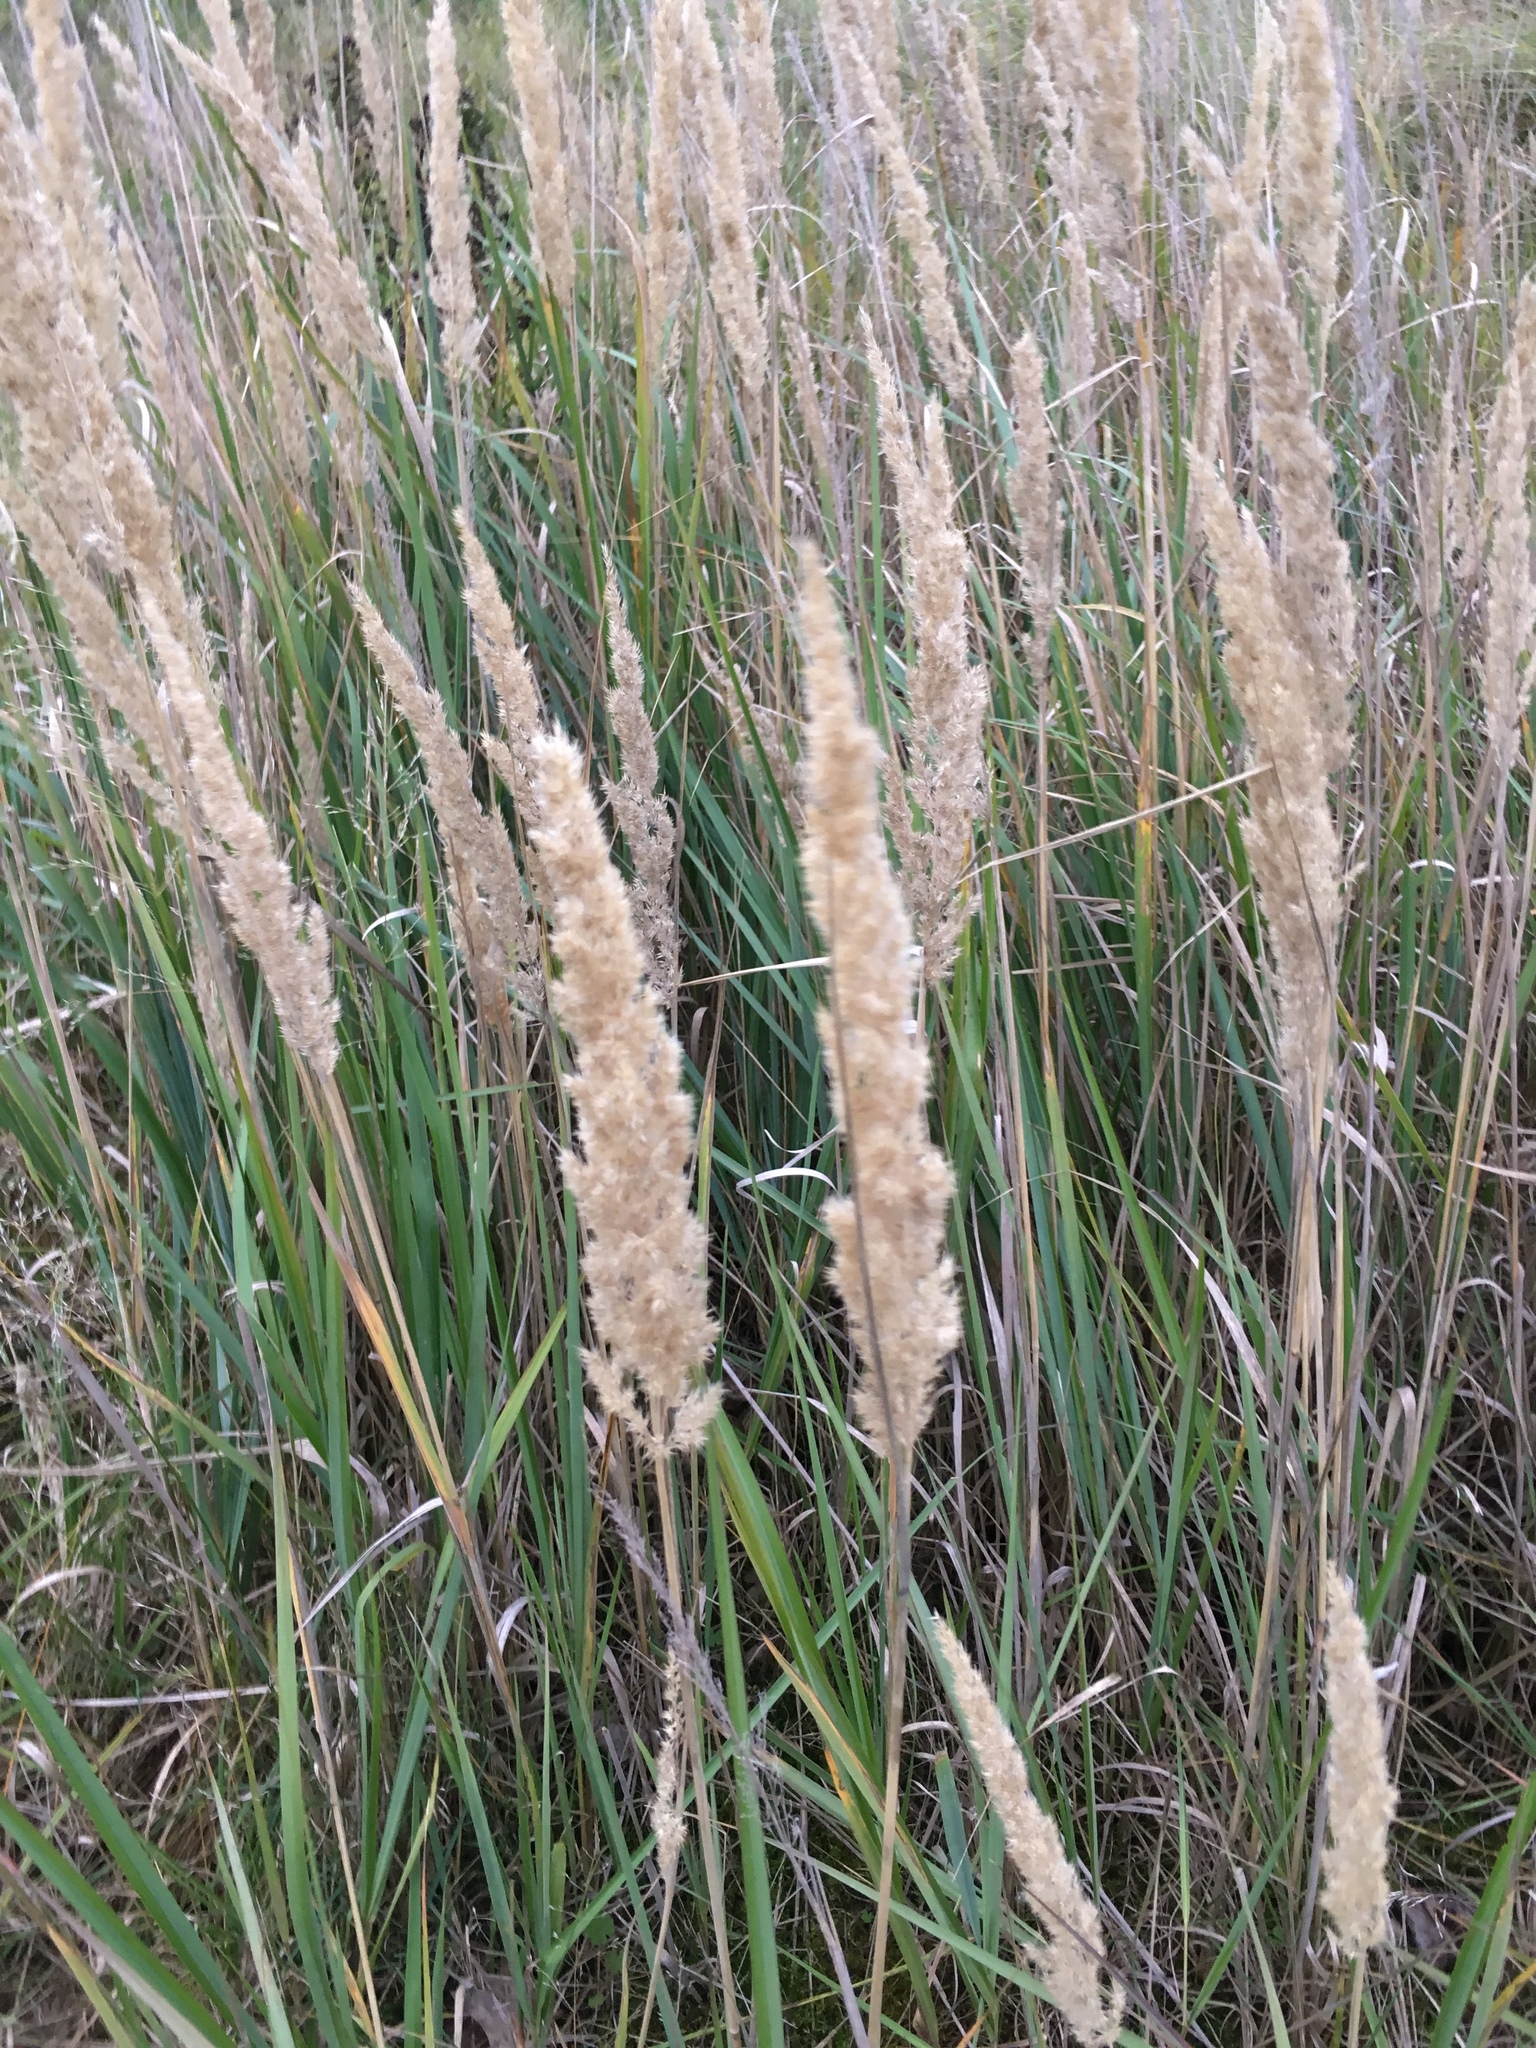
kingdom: Plantae
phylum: Tracheophyta
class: Liliopsida
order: Poales
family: Poaceae
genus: Calamagrostis
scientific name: Calamagrostis epigejos
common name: Wood small-reed
